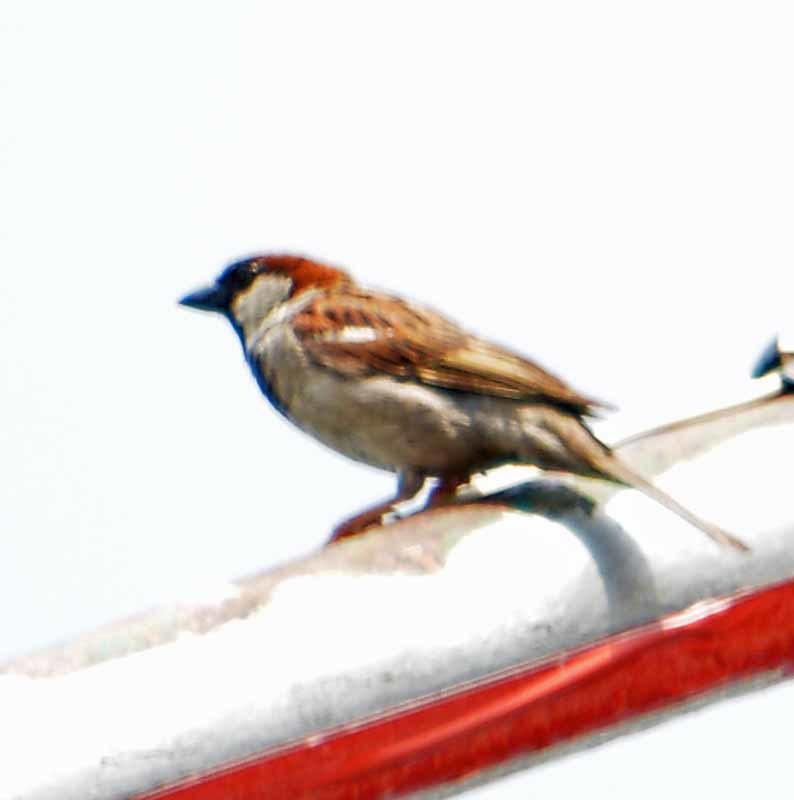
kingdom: Animalia
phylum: Chordata
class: Aves
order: Passeriformes
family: Passeridae
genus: Passer
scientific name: Passer domesticus
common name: House sparrow
